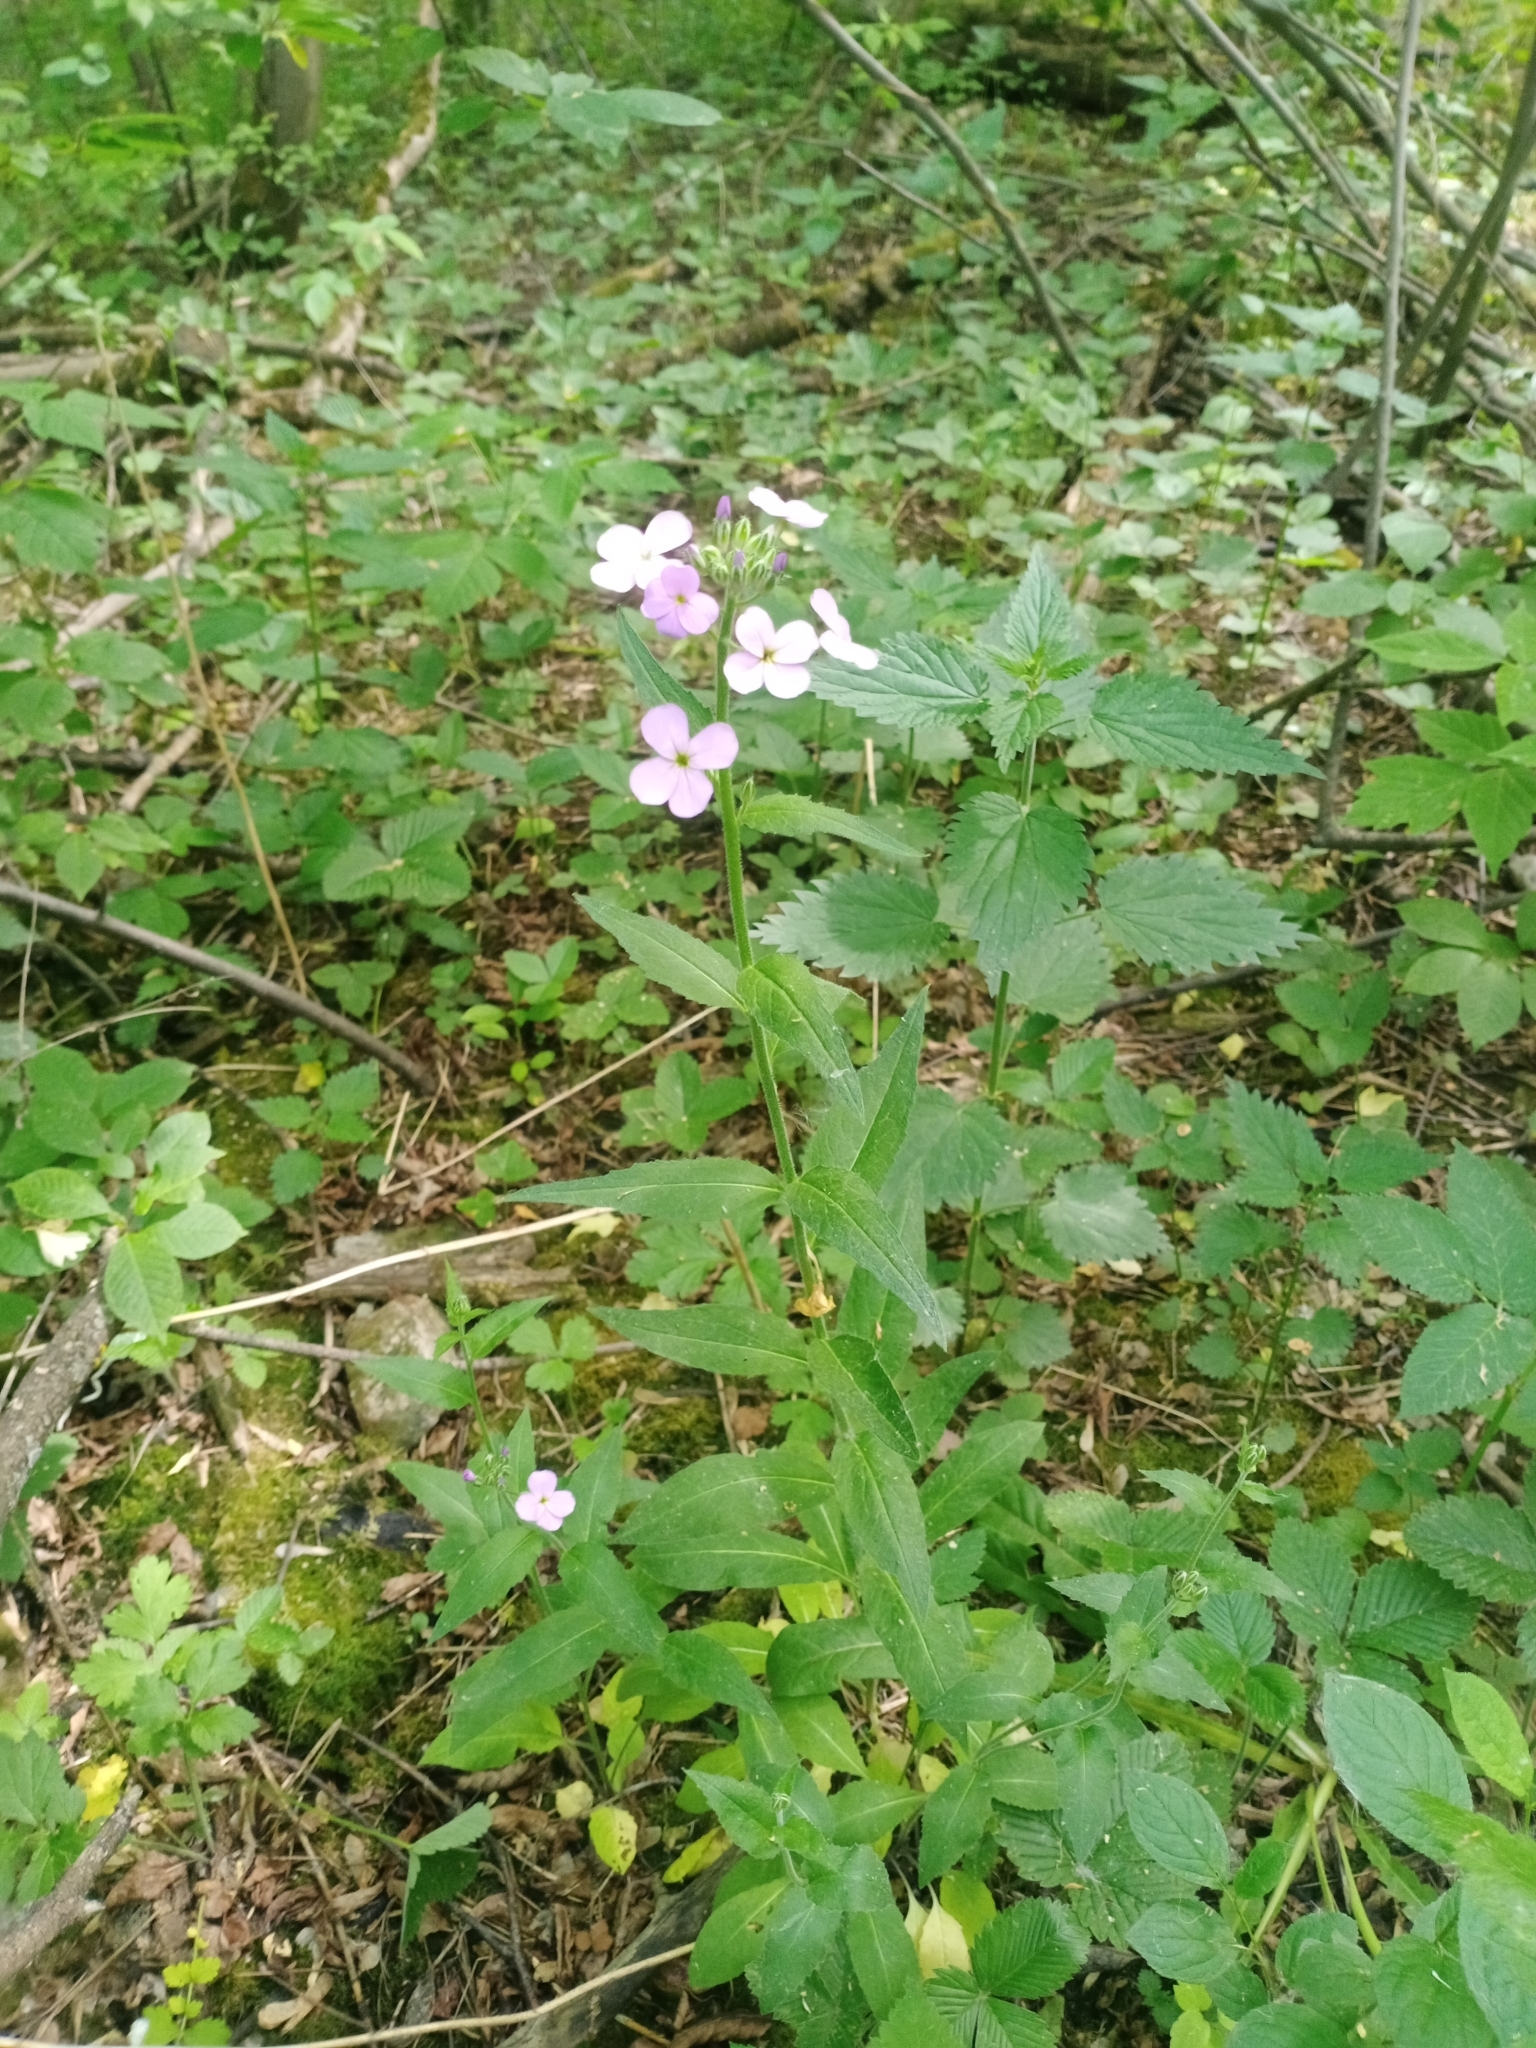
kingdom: Plantae
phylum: Tracheophyta
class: Magnoliopsida
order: Brassicales
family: Brassicaceae
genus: Hesperis
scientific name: Hesperis matronalis
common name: Dame's-violet
